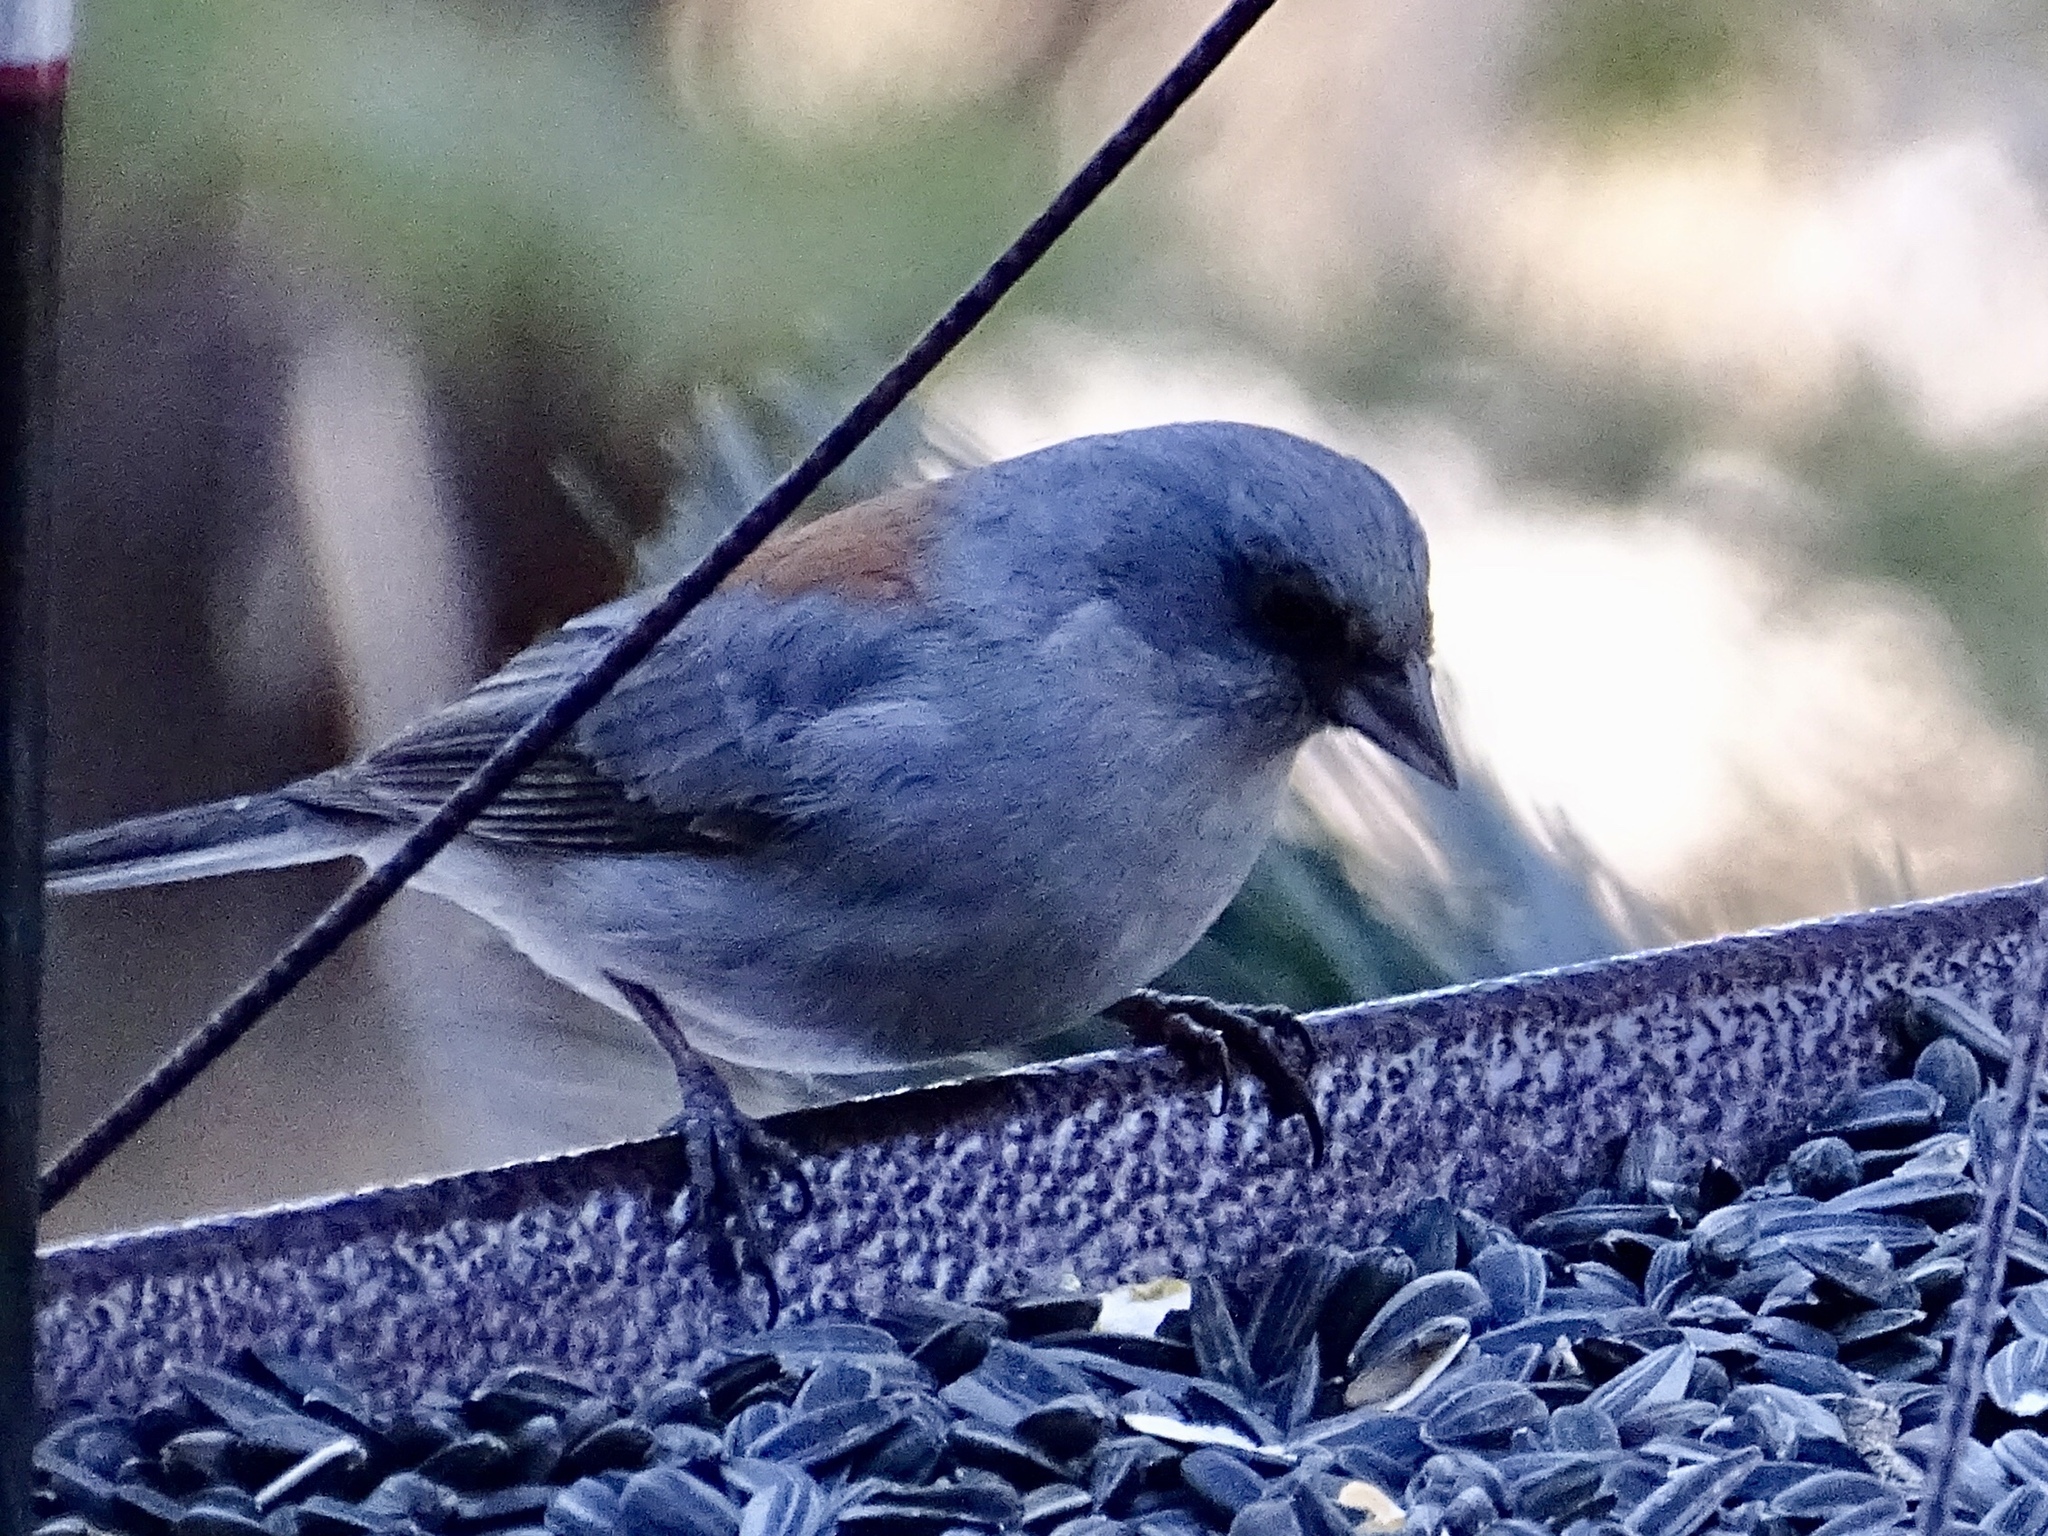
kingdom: Animalia
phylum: Chordata
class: Aves
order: Passeriformes
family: Passerellidae
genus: Junco
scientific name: Junco hyemalis
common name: Dark-eyed junco
